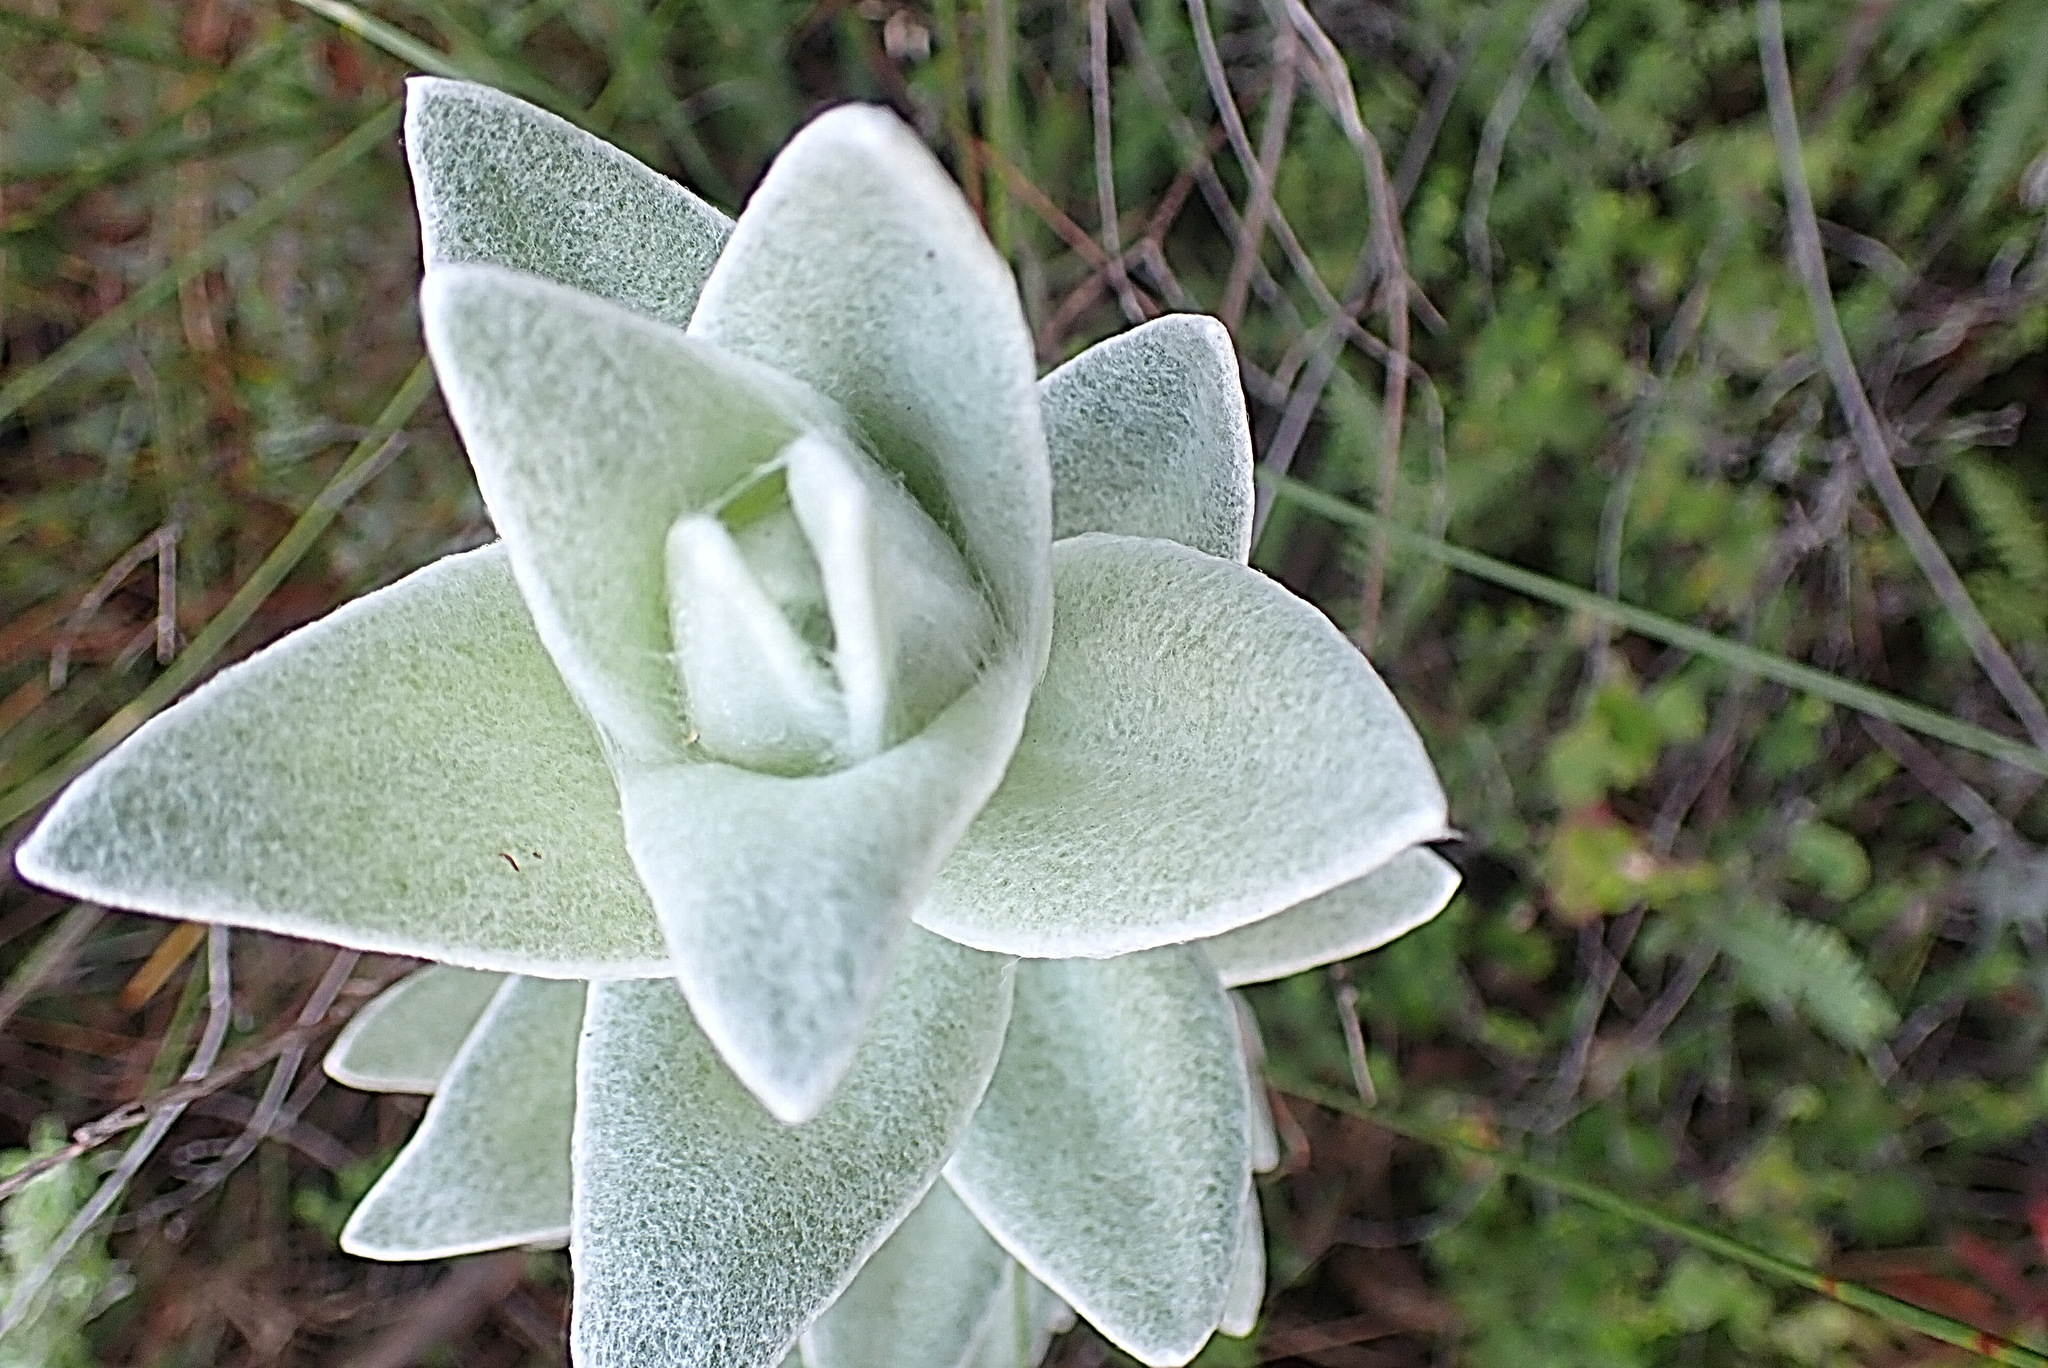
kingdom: Plantae
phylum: Tracheophyta
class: Magnoliopsida
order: Asterales
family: Asteraceae
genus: Syncarpha
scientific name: Syncarpha eximia
